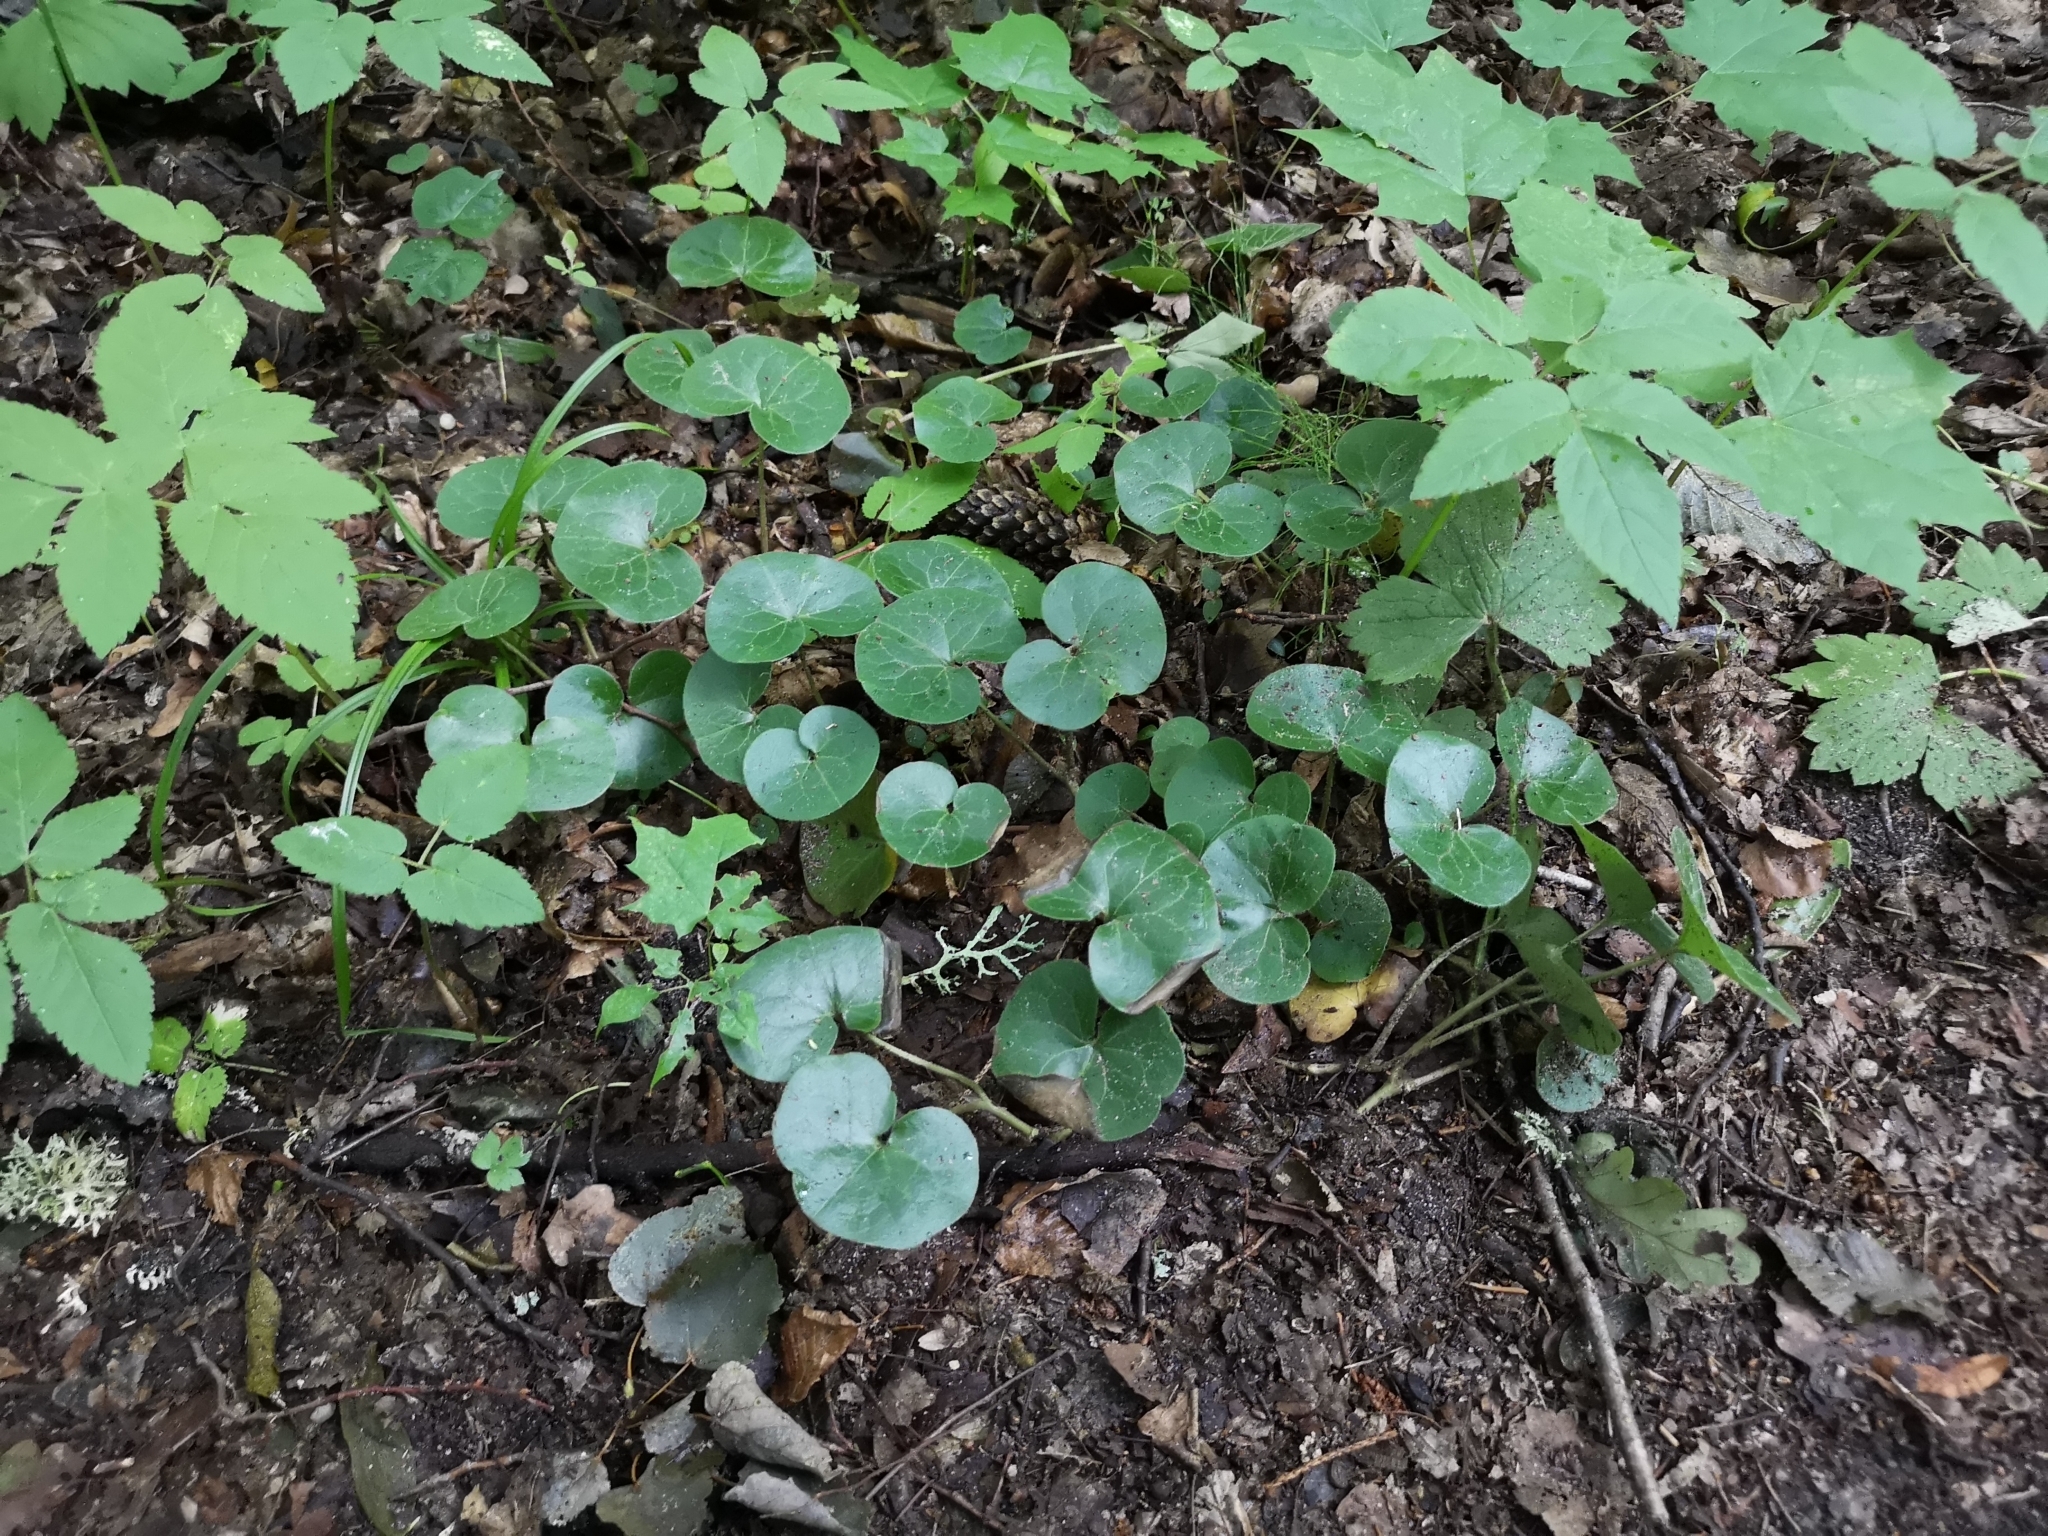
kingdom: Plantae
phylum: Tracheophyta
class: Magnoliopsida
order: Piperales
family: Aristolochiaceae
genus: Asarum
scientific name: Asarum europaeum
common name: Asarabacca
